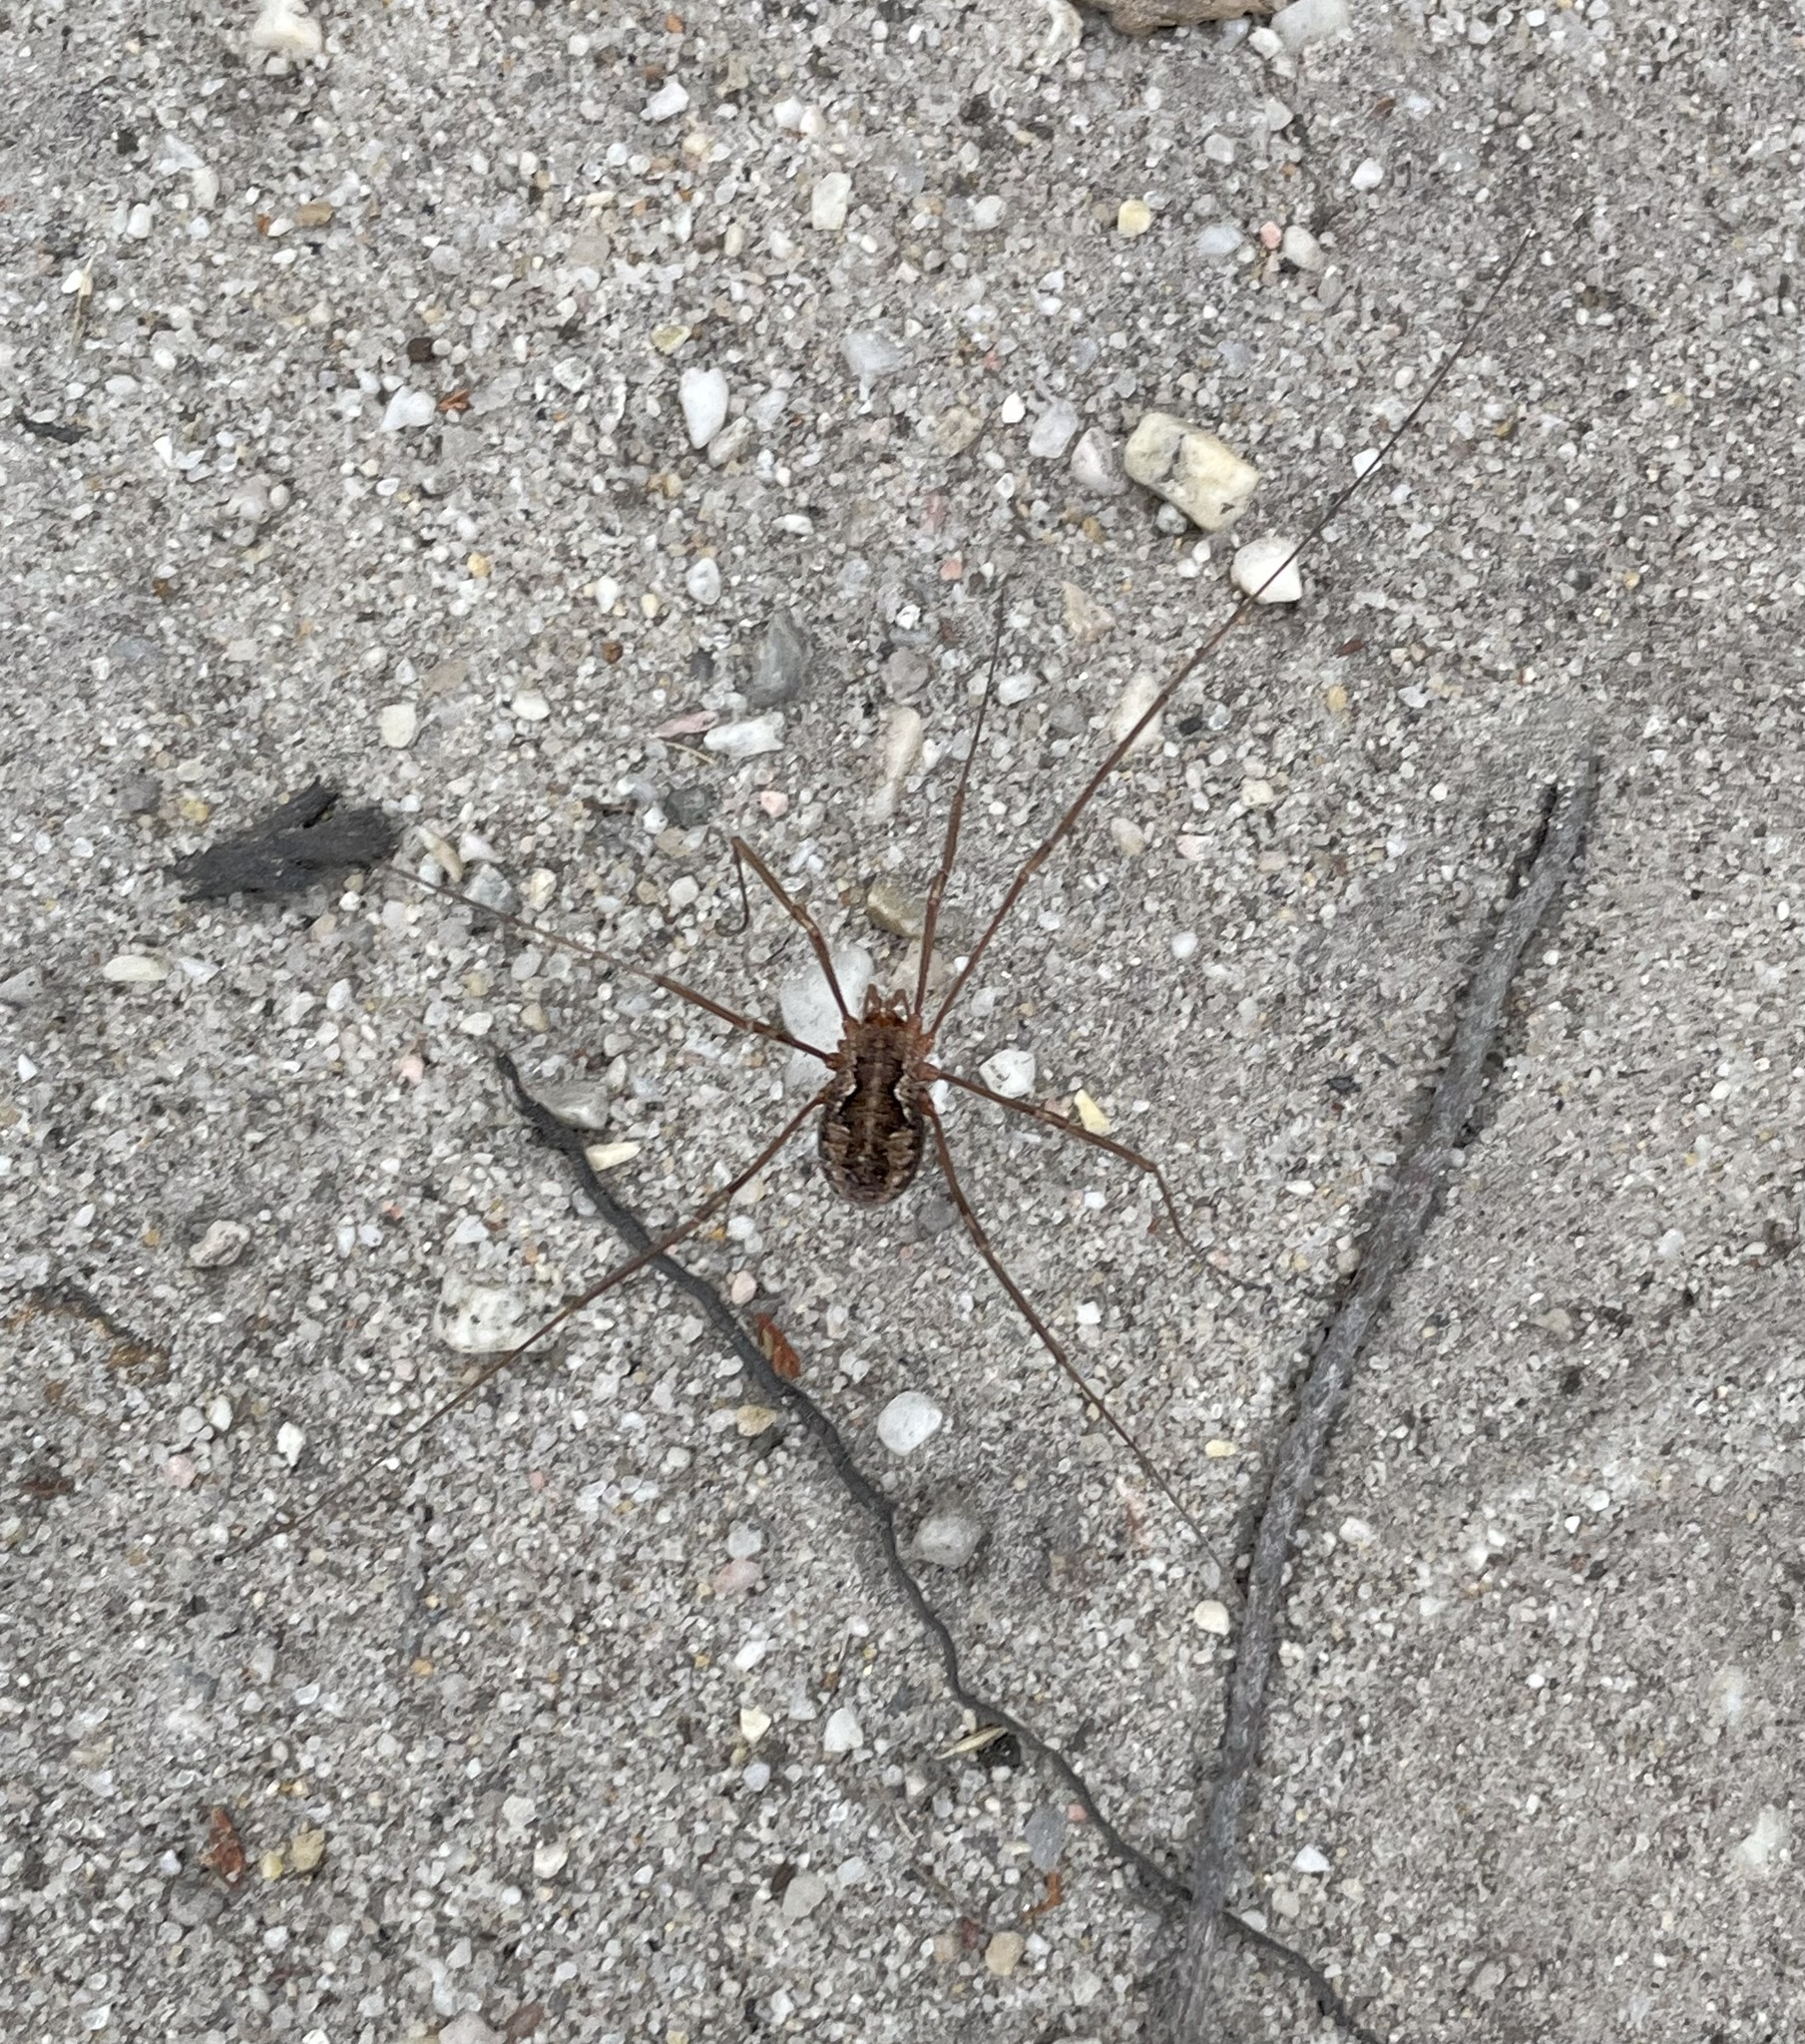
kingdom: Animalia
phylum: Arthropoda
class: Arachnida
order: Opiliones
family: Phalangiidae
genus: Phalangium
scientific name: Phalangium opilio
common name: Daddy longleg
